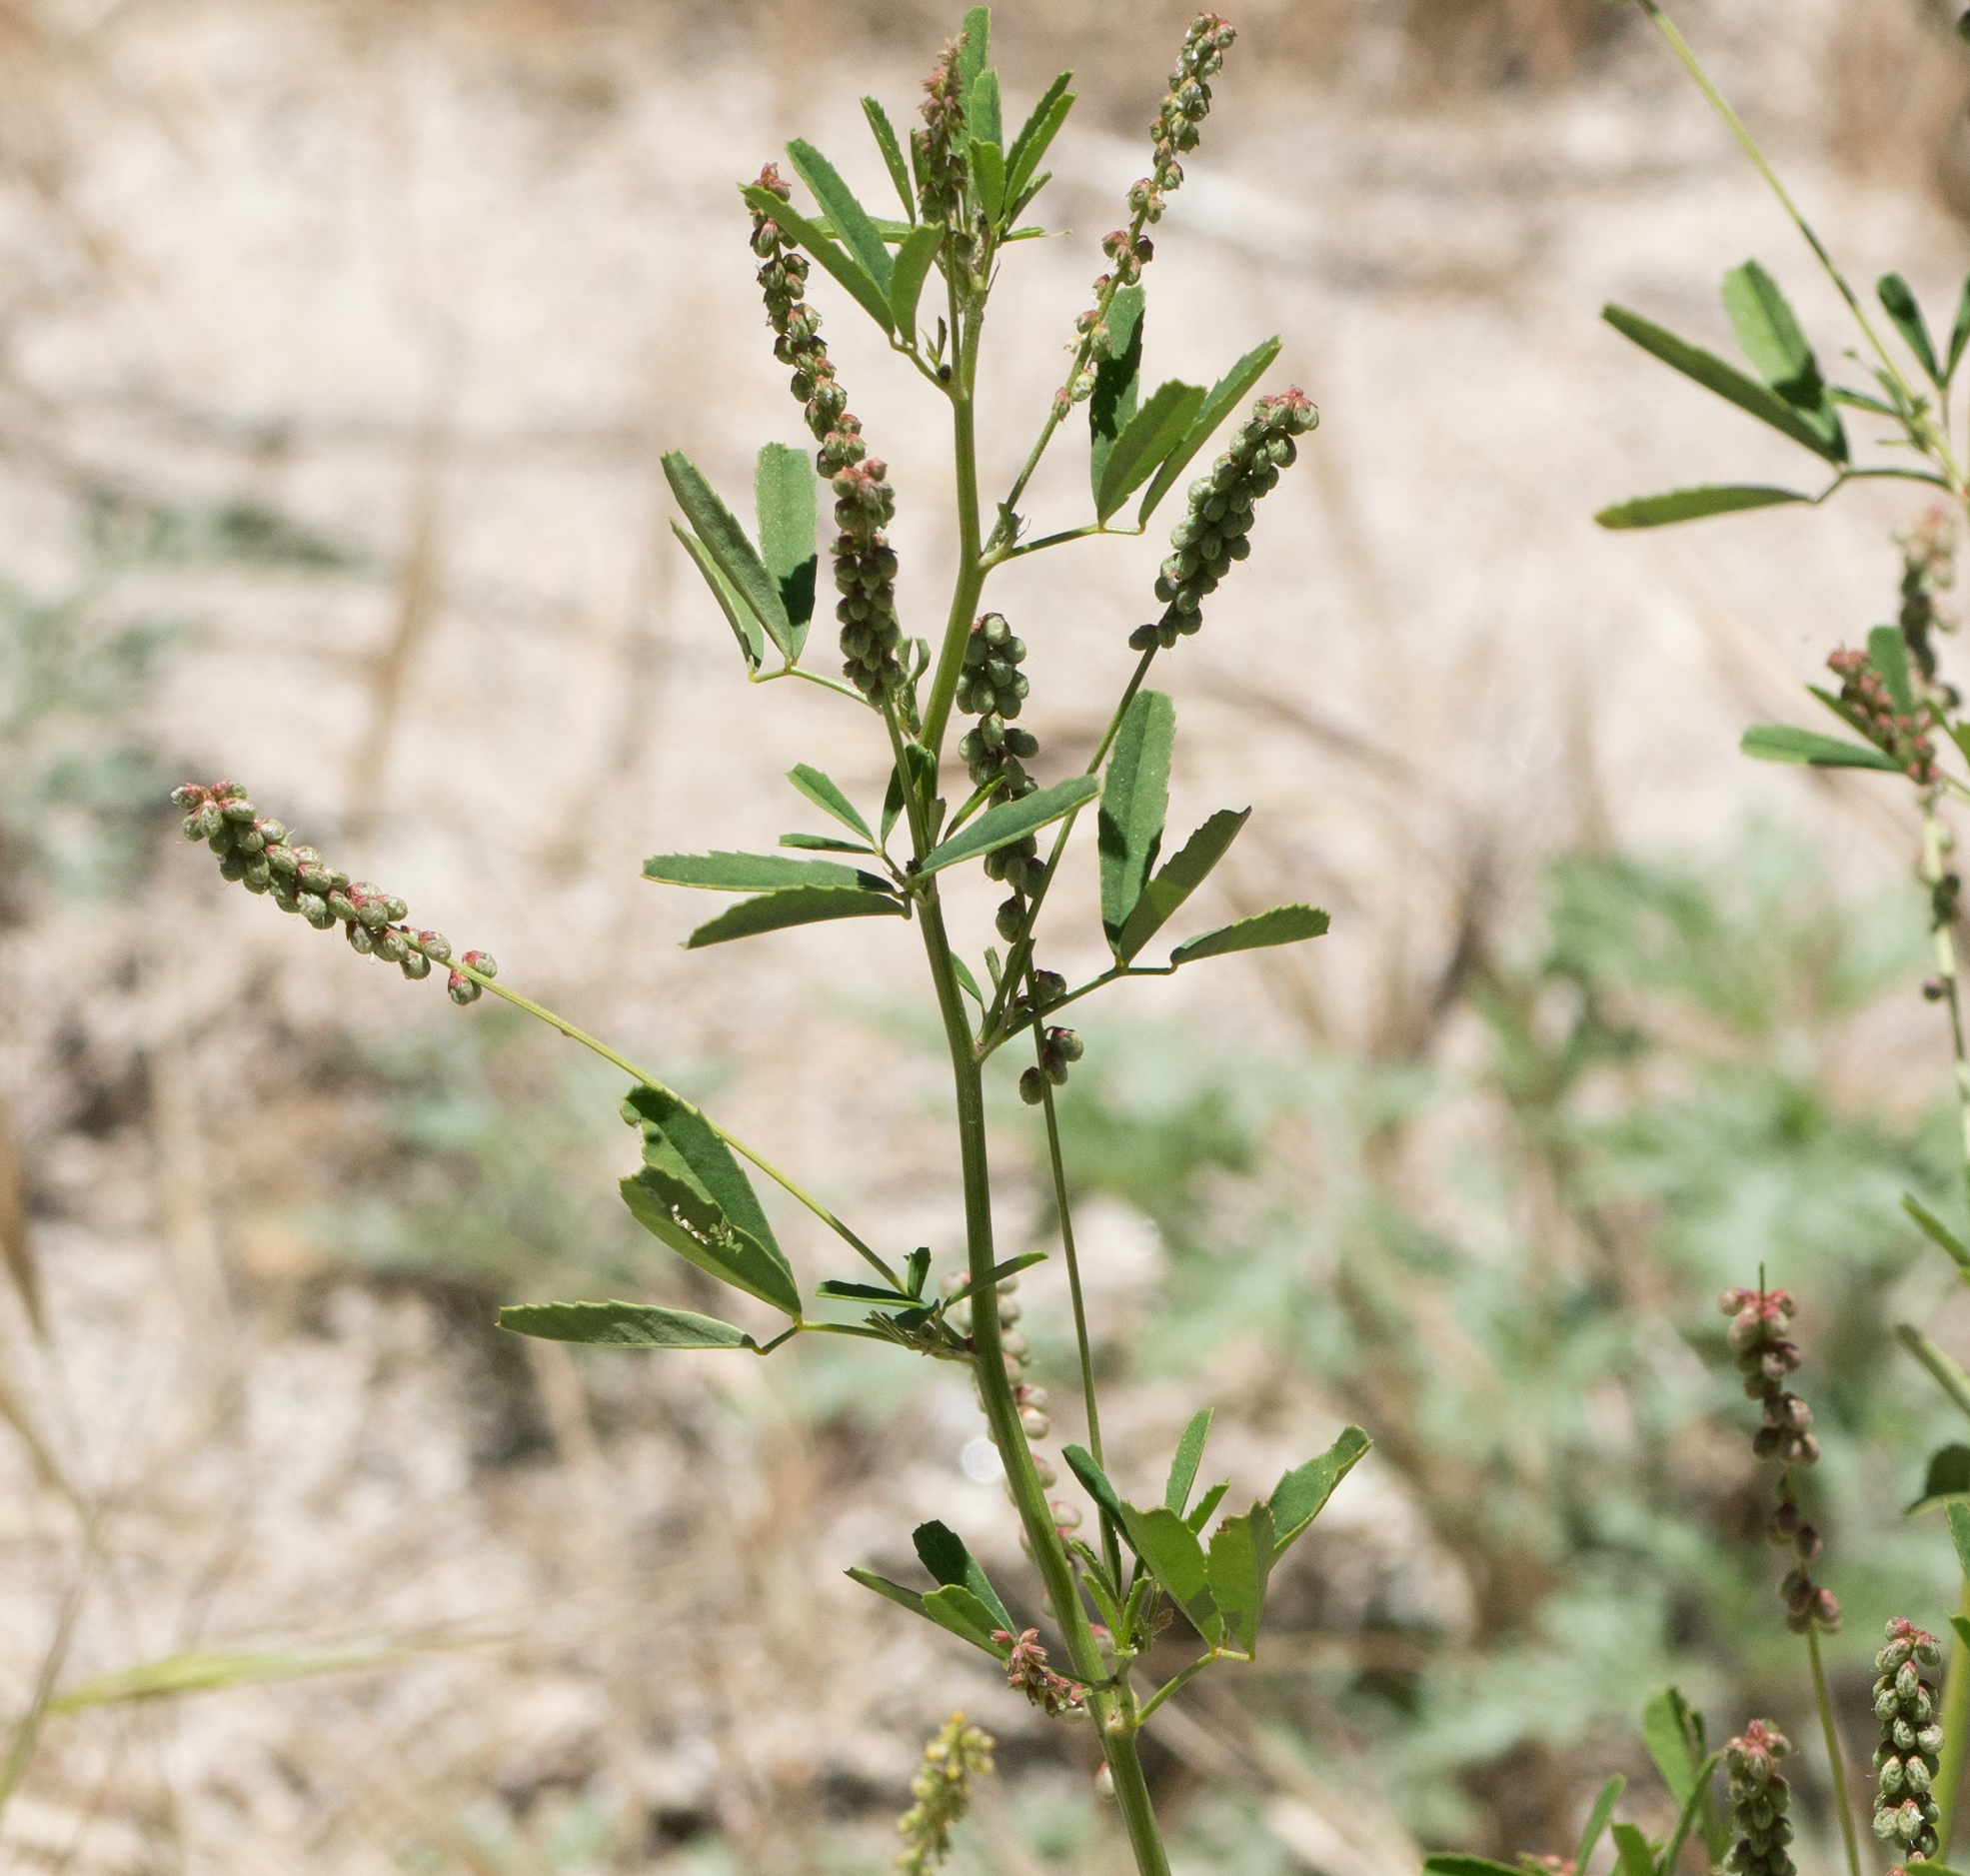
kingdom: Plantae
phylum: Tracheophyta
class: Magnoliopsida
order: Fabales
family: Fabaceae
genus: Melilotus
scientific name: Melilotus indicus
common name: Small melilot
